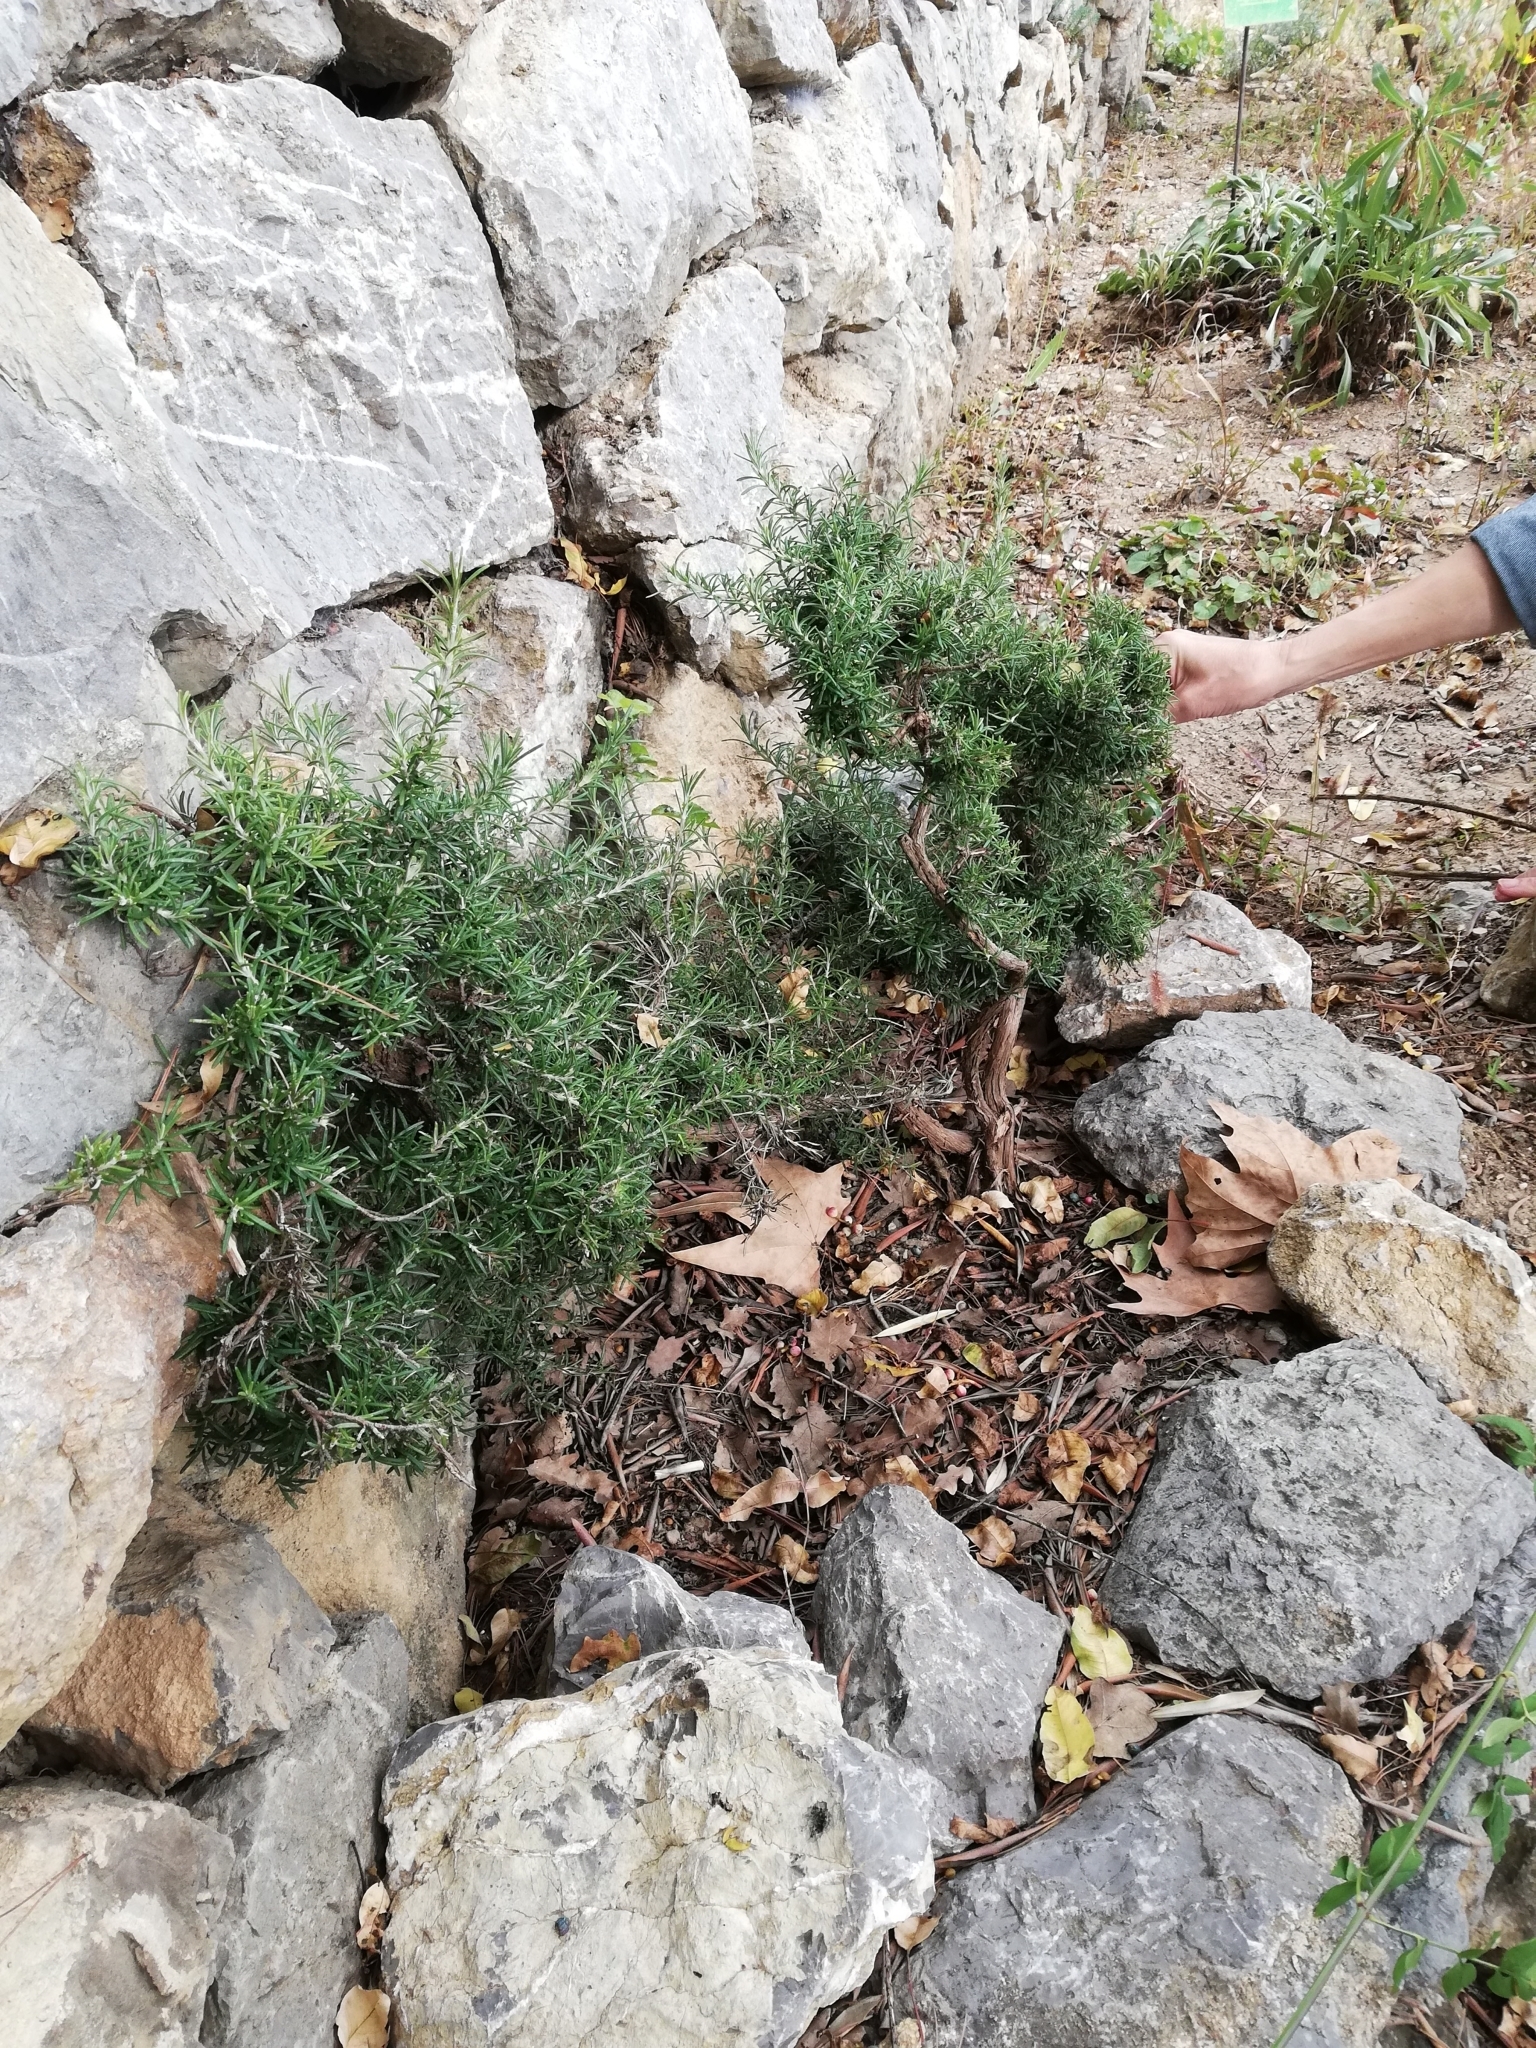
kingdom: Plantae
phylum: Tracheophyta
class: Magnoliopsida
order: Lamiales
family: Lamiaceae
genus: Salvia
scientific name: Salvia rosmarinus
